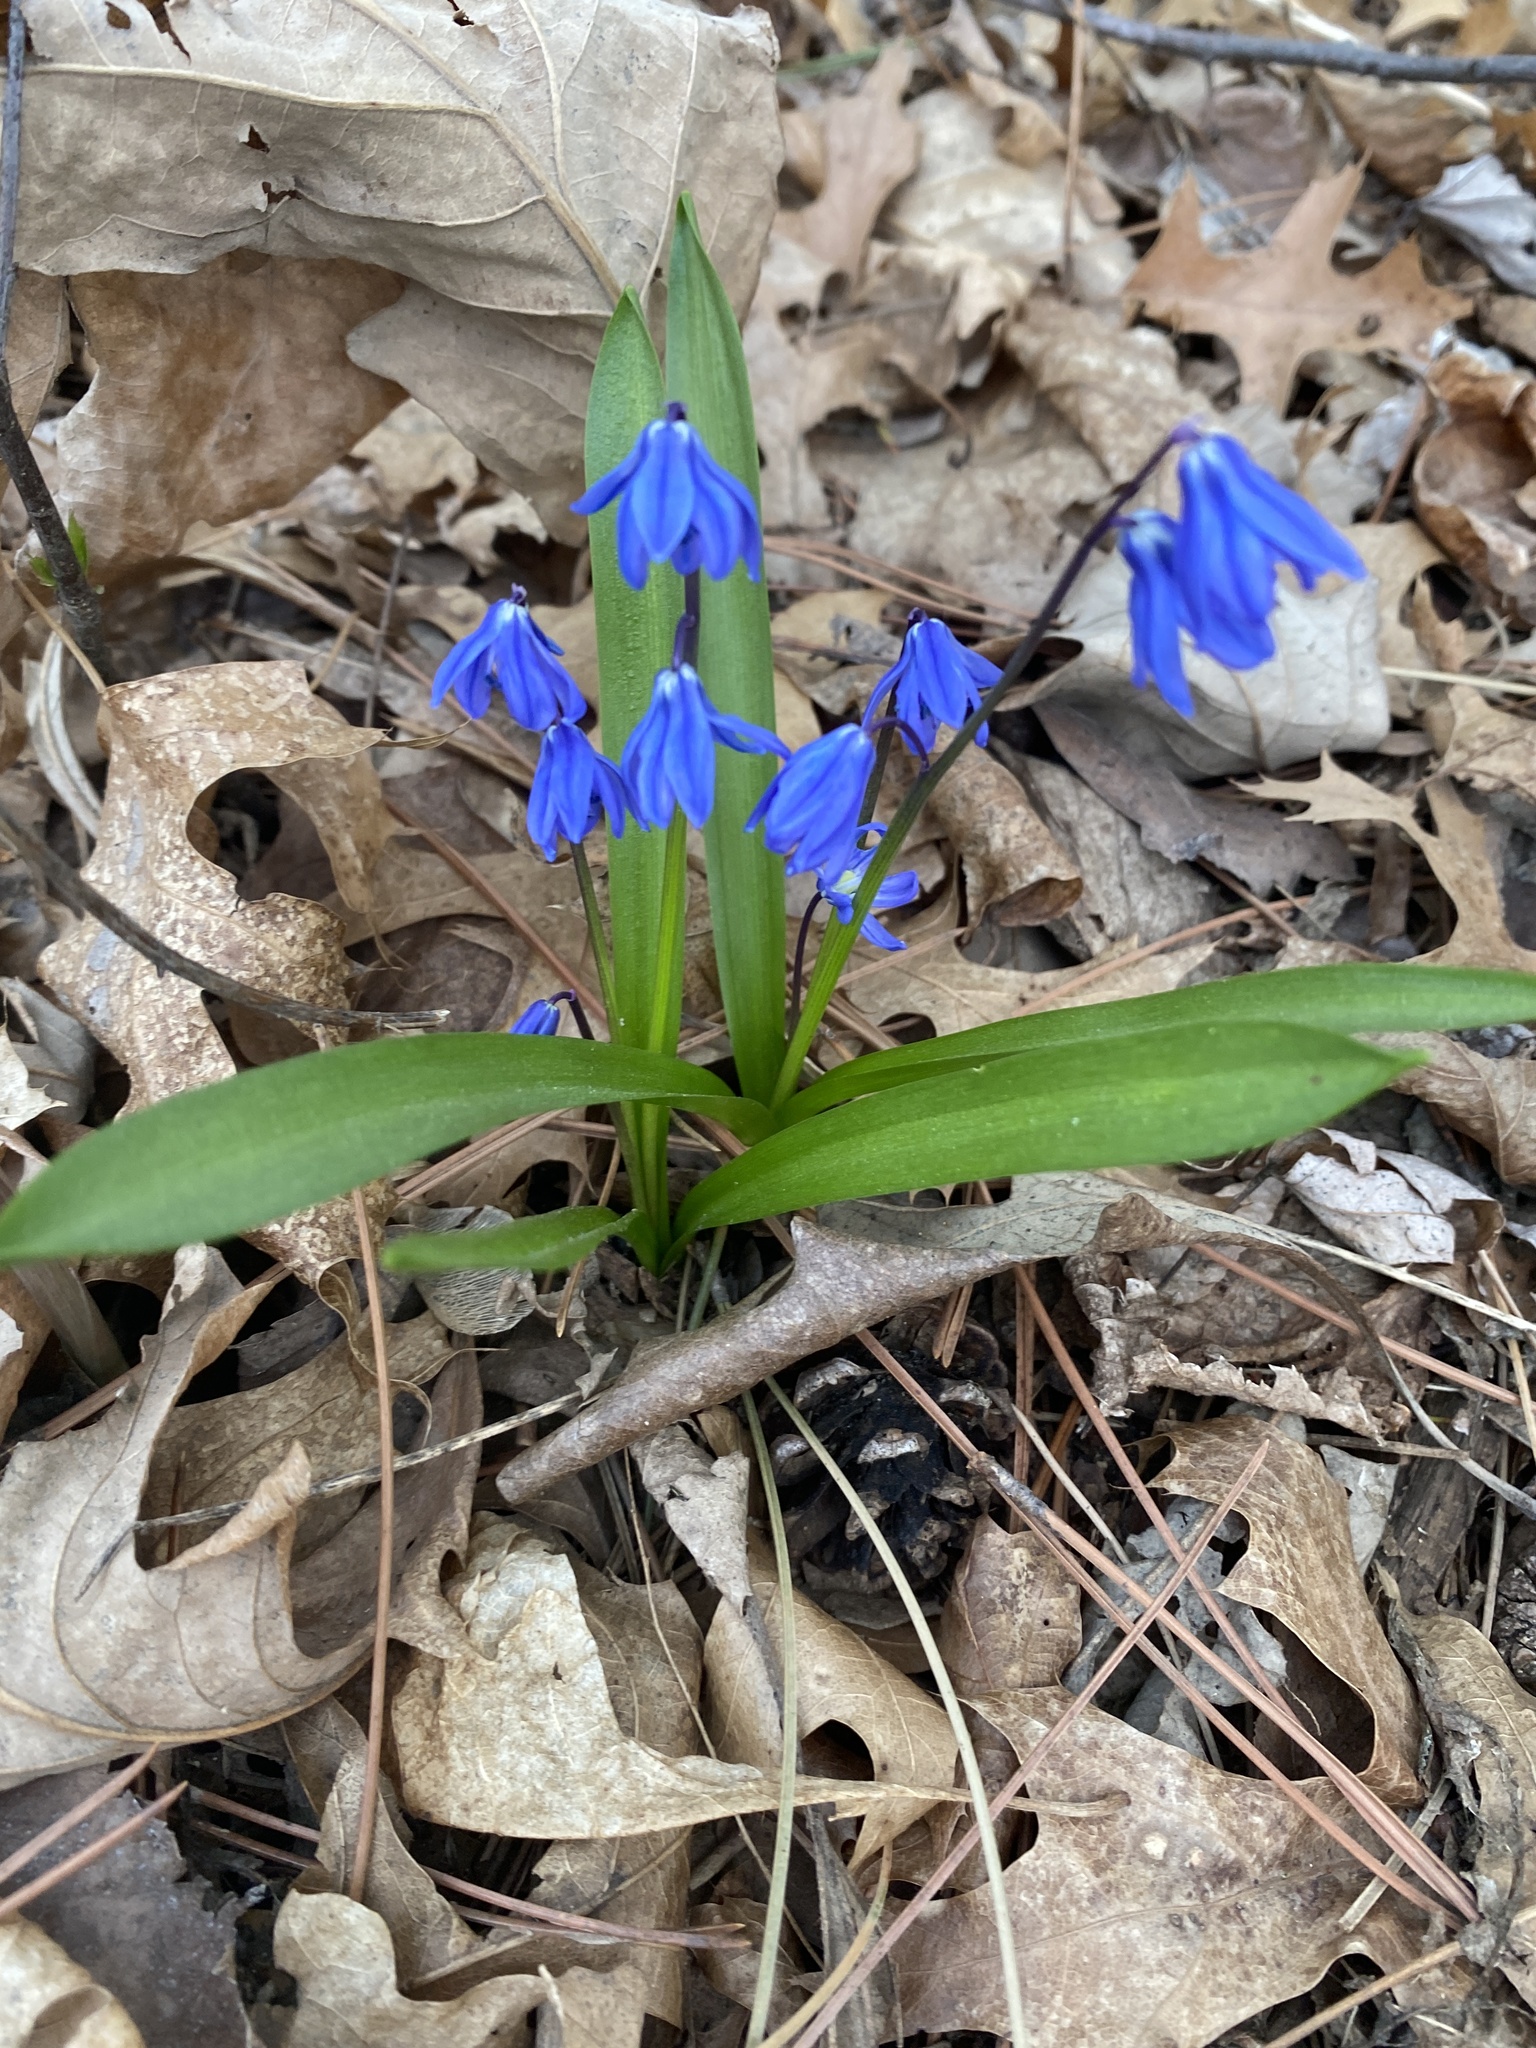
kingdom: Plantae
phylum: Tracheophyta
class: Liliopsida
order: Asparagales
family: Asparagaceae
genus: Scilla
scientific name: Scilla siberica
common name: Siberian squill
